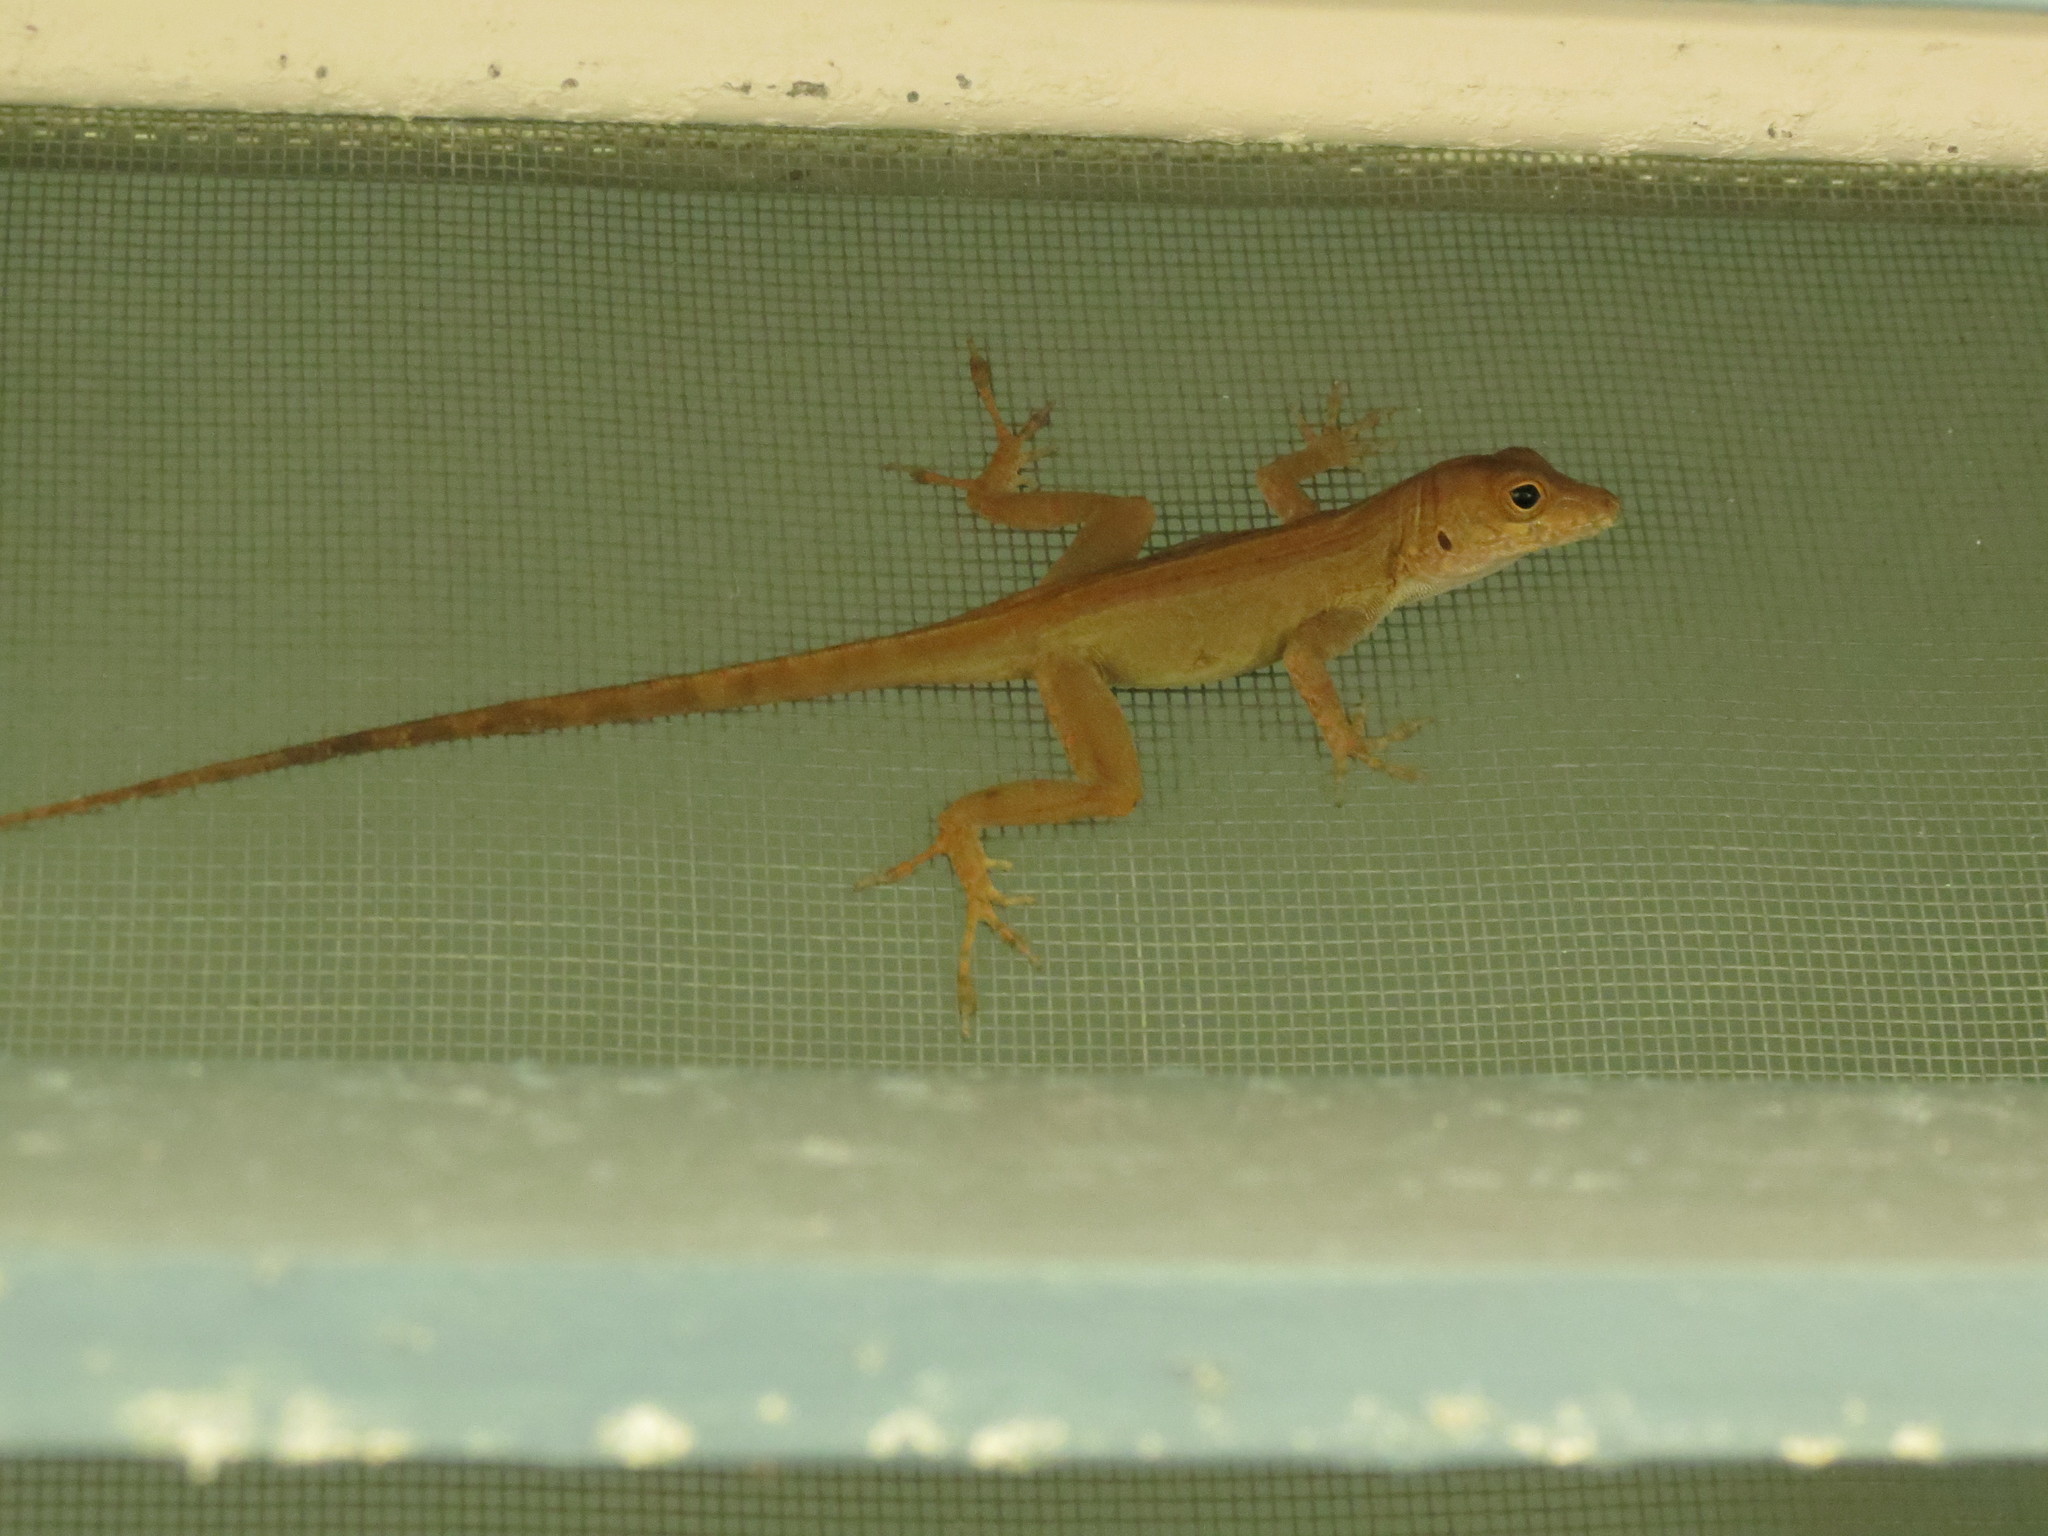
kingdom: Animalia
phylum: Chordata
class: Squamata
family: Dactyloidae
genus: Anolis
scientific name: Anolis cristatellus
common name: Crested anole
